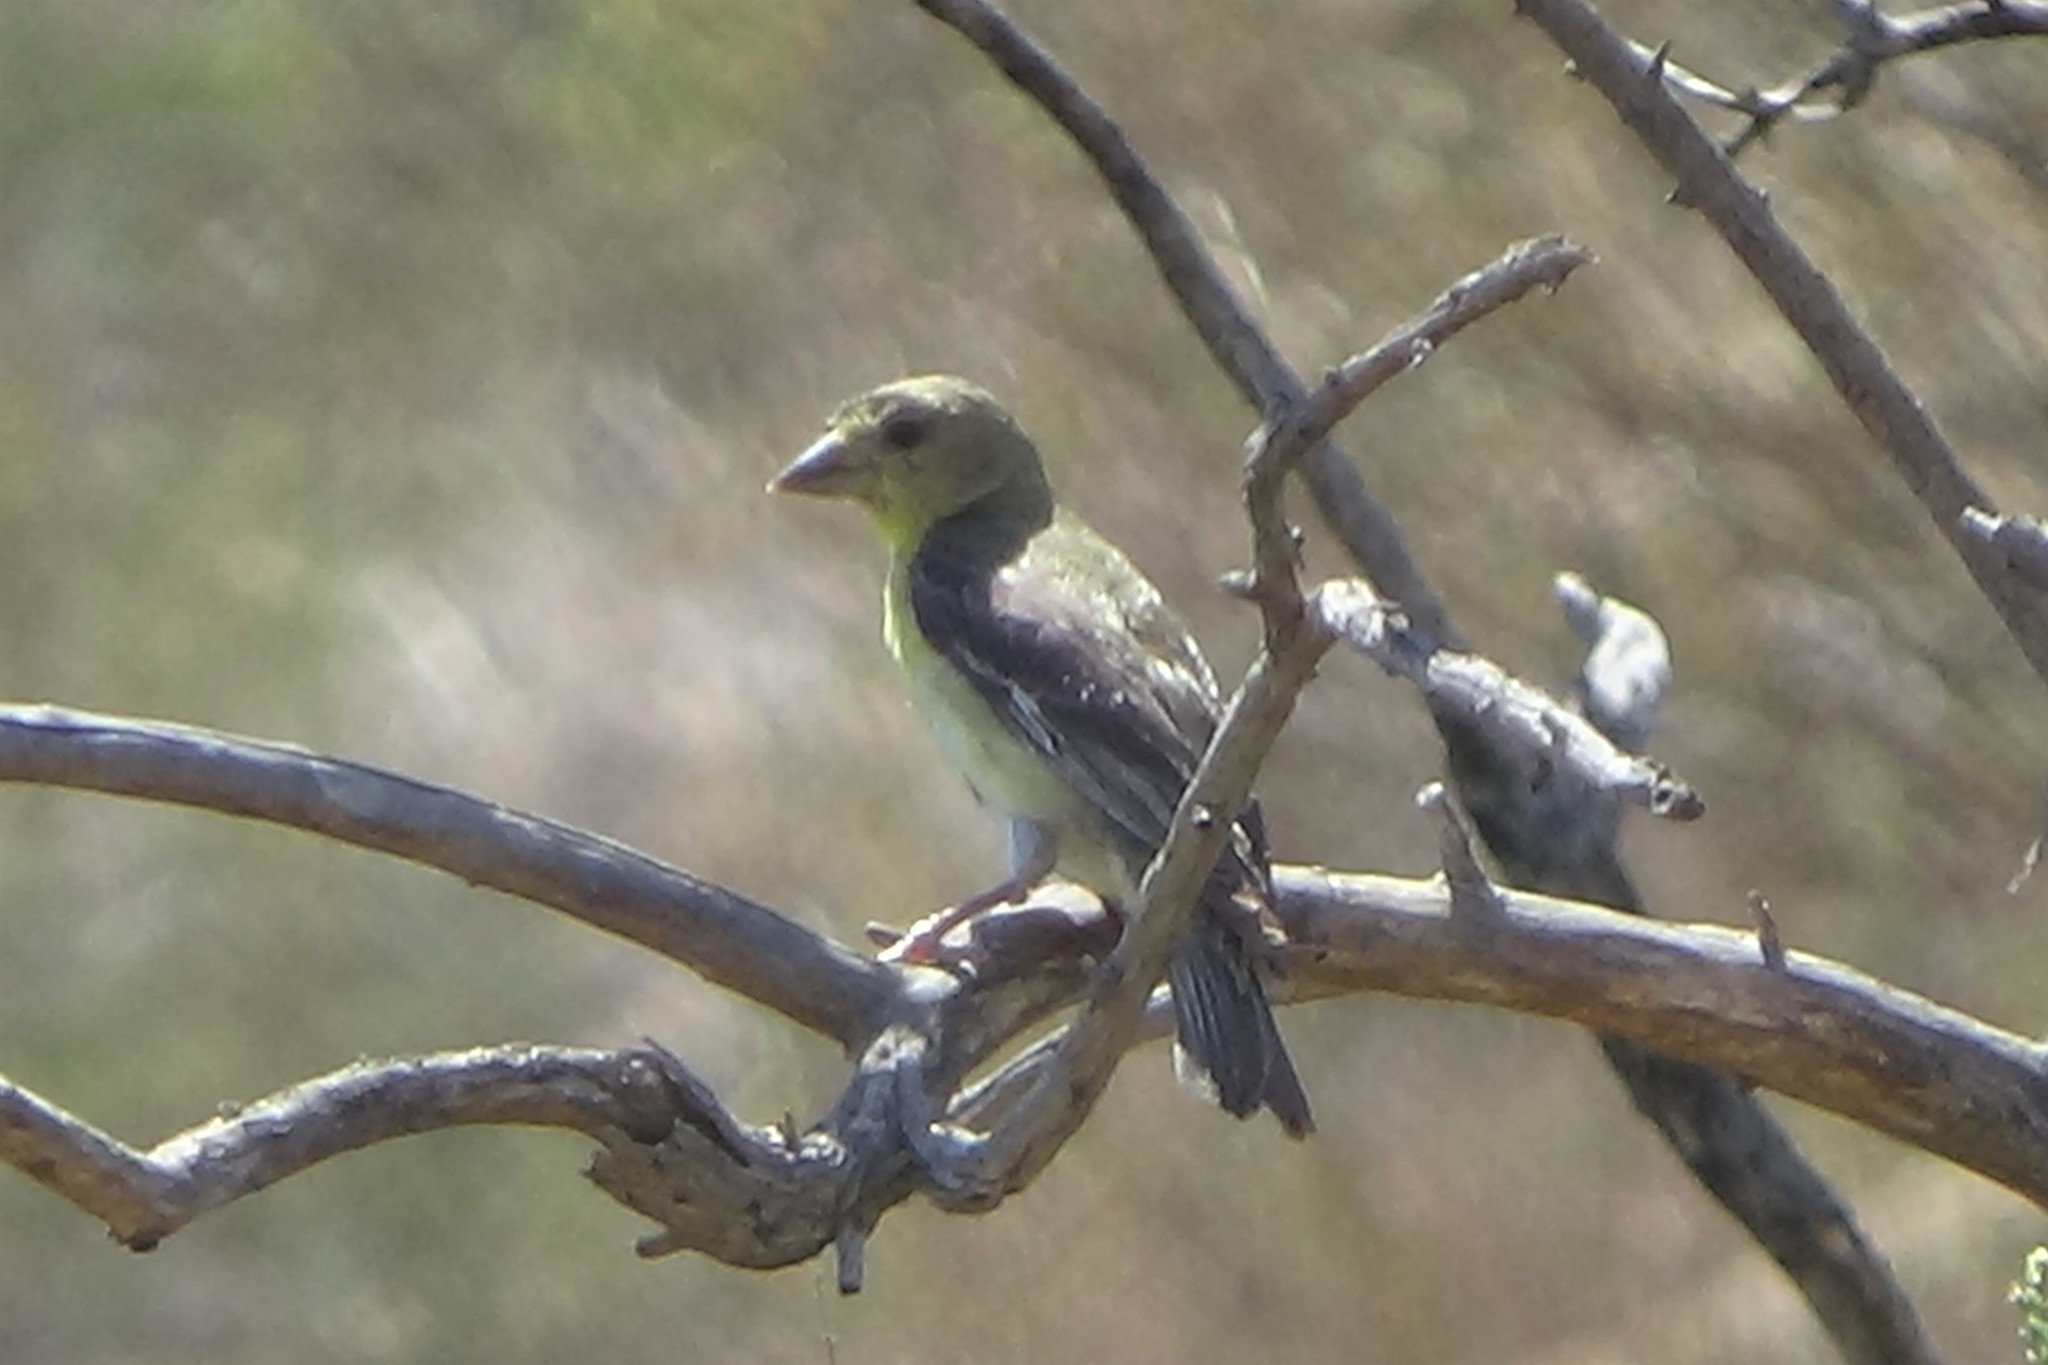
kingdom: Animalia
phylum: Chordata
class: Aves
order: Passeriformes
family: Fringillidae
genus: Spinus
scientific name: Spinus psaltria
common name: Lesser goldfinch
